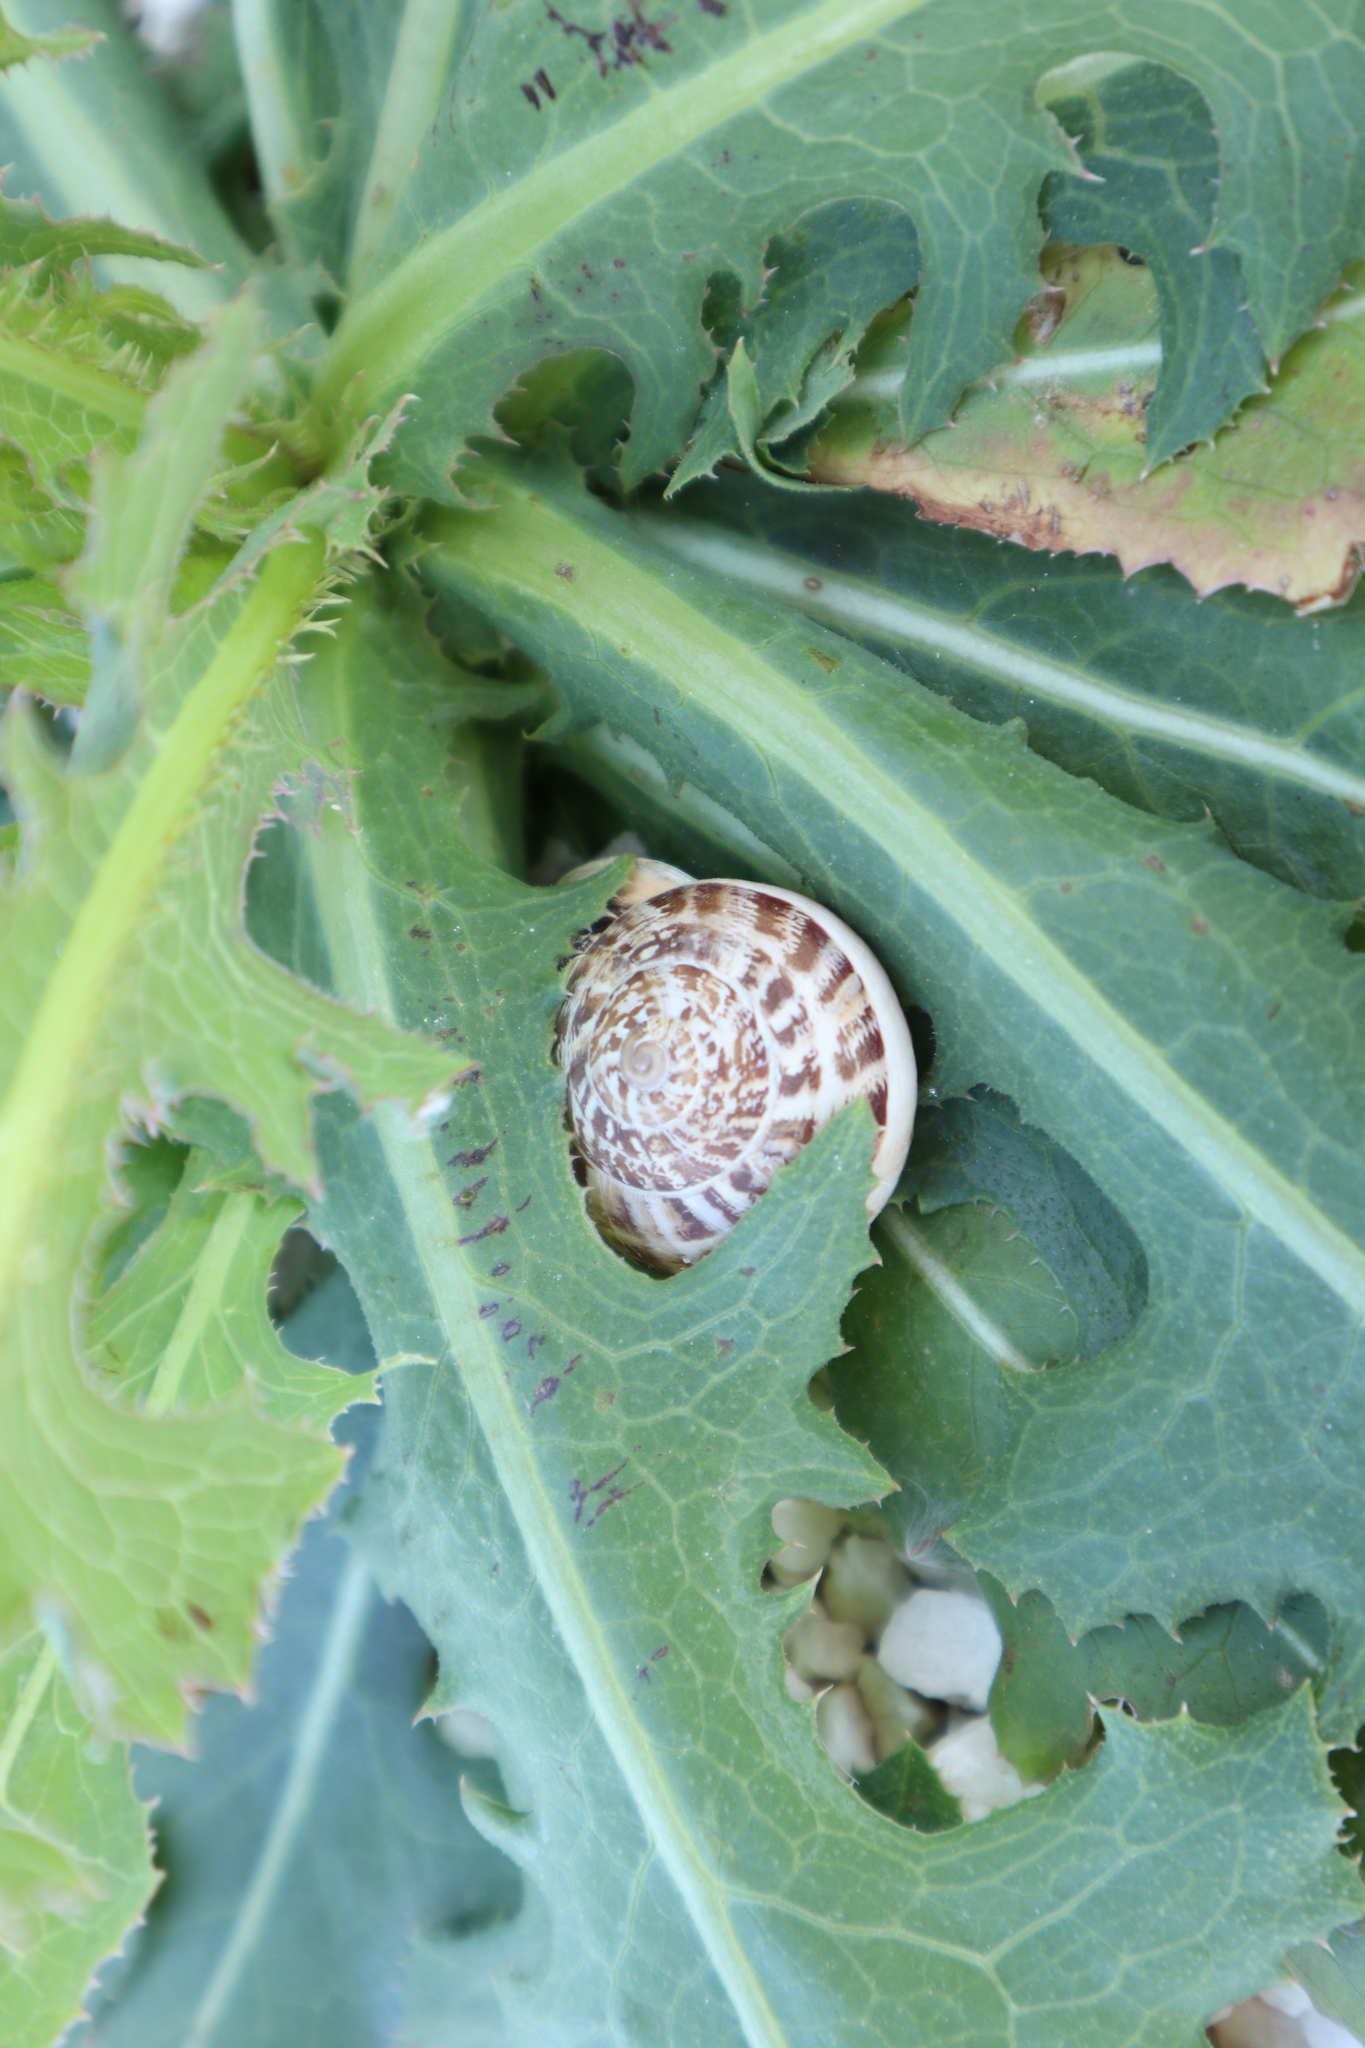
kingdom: Animalia
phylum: Mollusca
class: Gastropoda
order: Stylommatophora
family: Helicidae
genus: Eobania
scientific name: Eobania vermiculata
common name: Chocolateband snail
